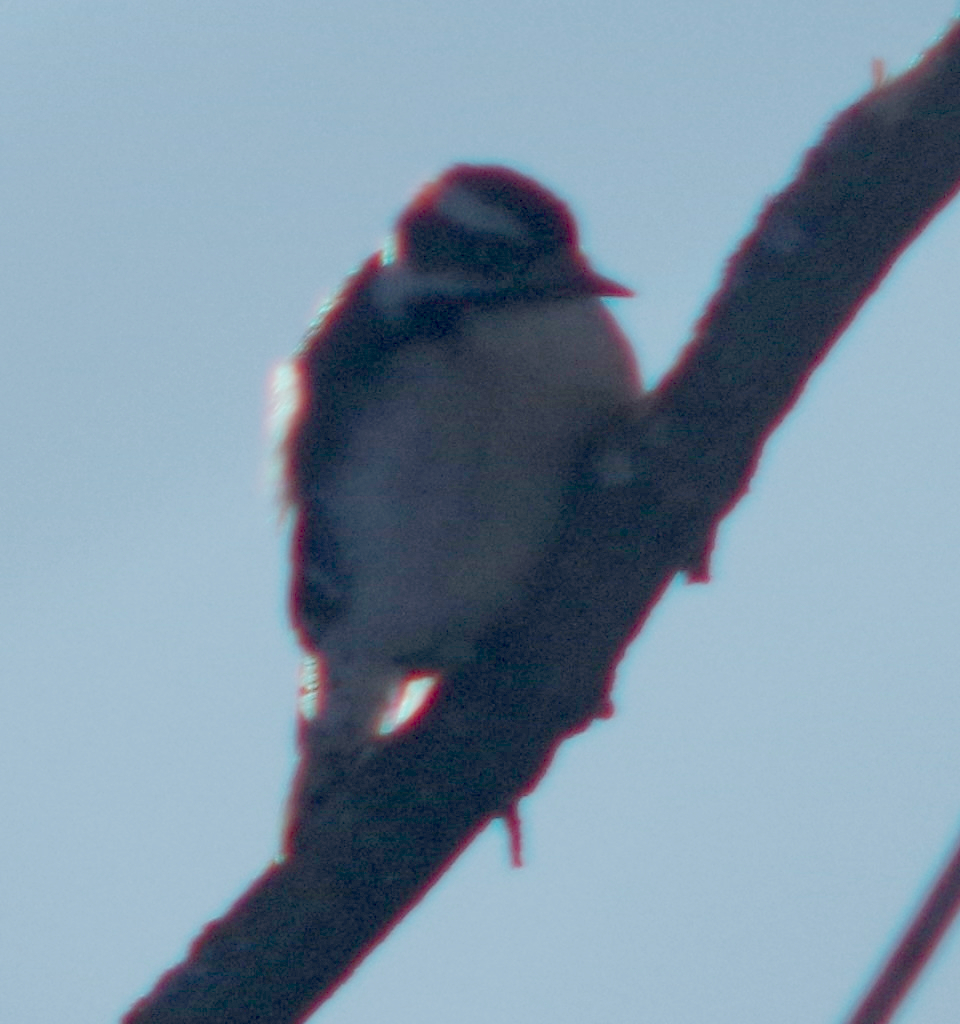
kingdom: Animalia
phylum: Chordata
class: Aves
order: Piciformes
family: Picidae
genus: Dryobates
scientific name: Dryobates pubescens
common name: Downy woodpecker
